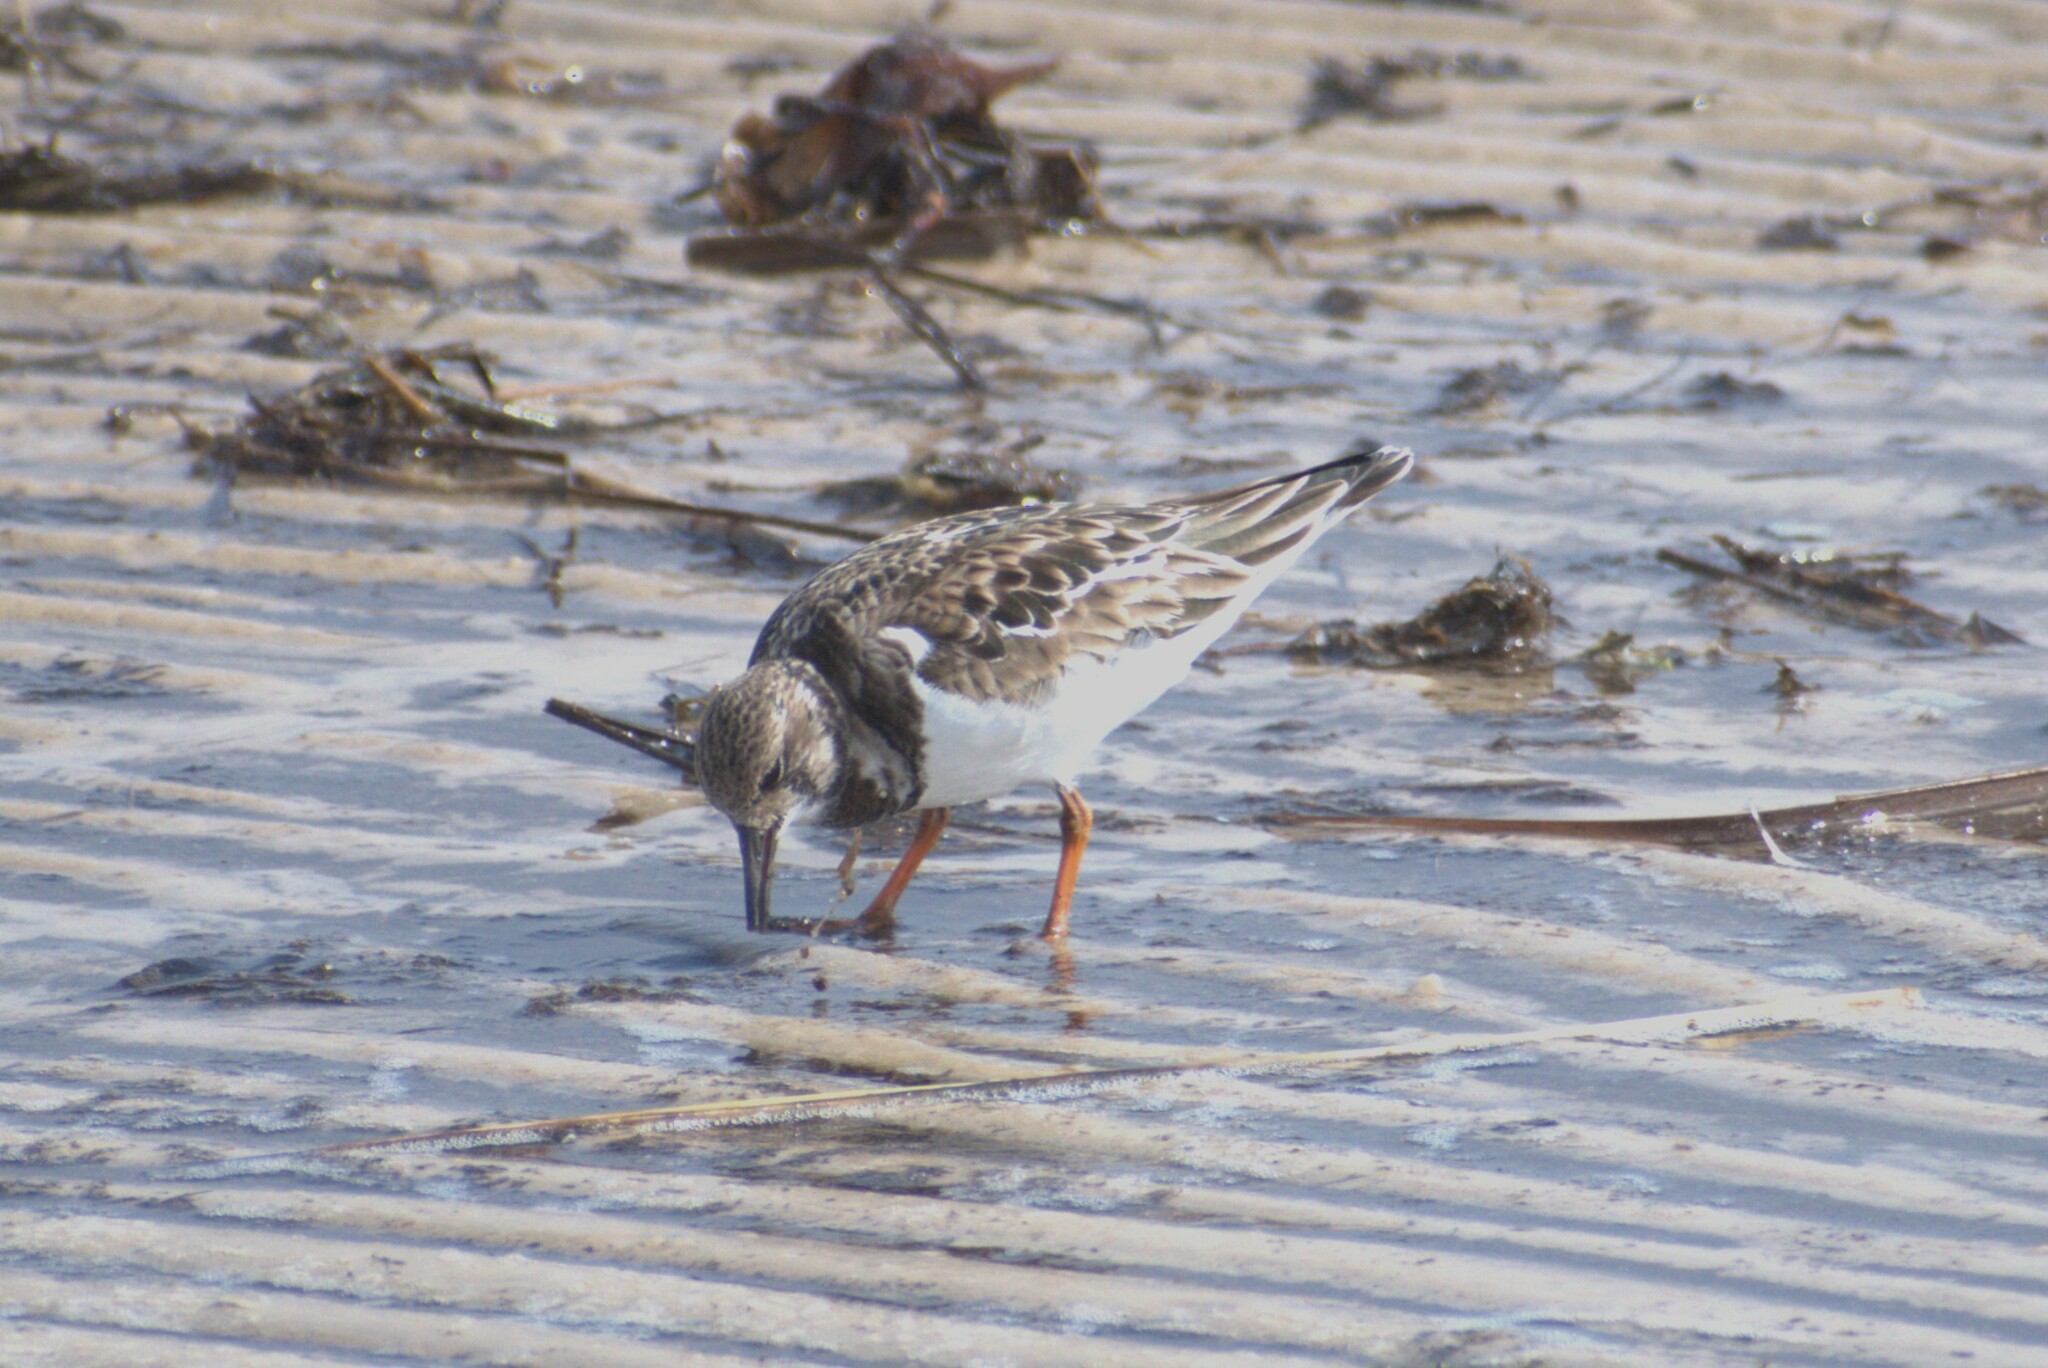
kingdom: Animalia
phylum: Chordata
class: Aves
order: Charadriiformes
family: Scolopacidae
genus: Arenaria
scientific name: Arenaria interpres
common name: Ruddy turnstone
